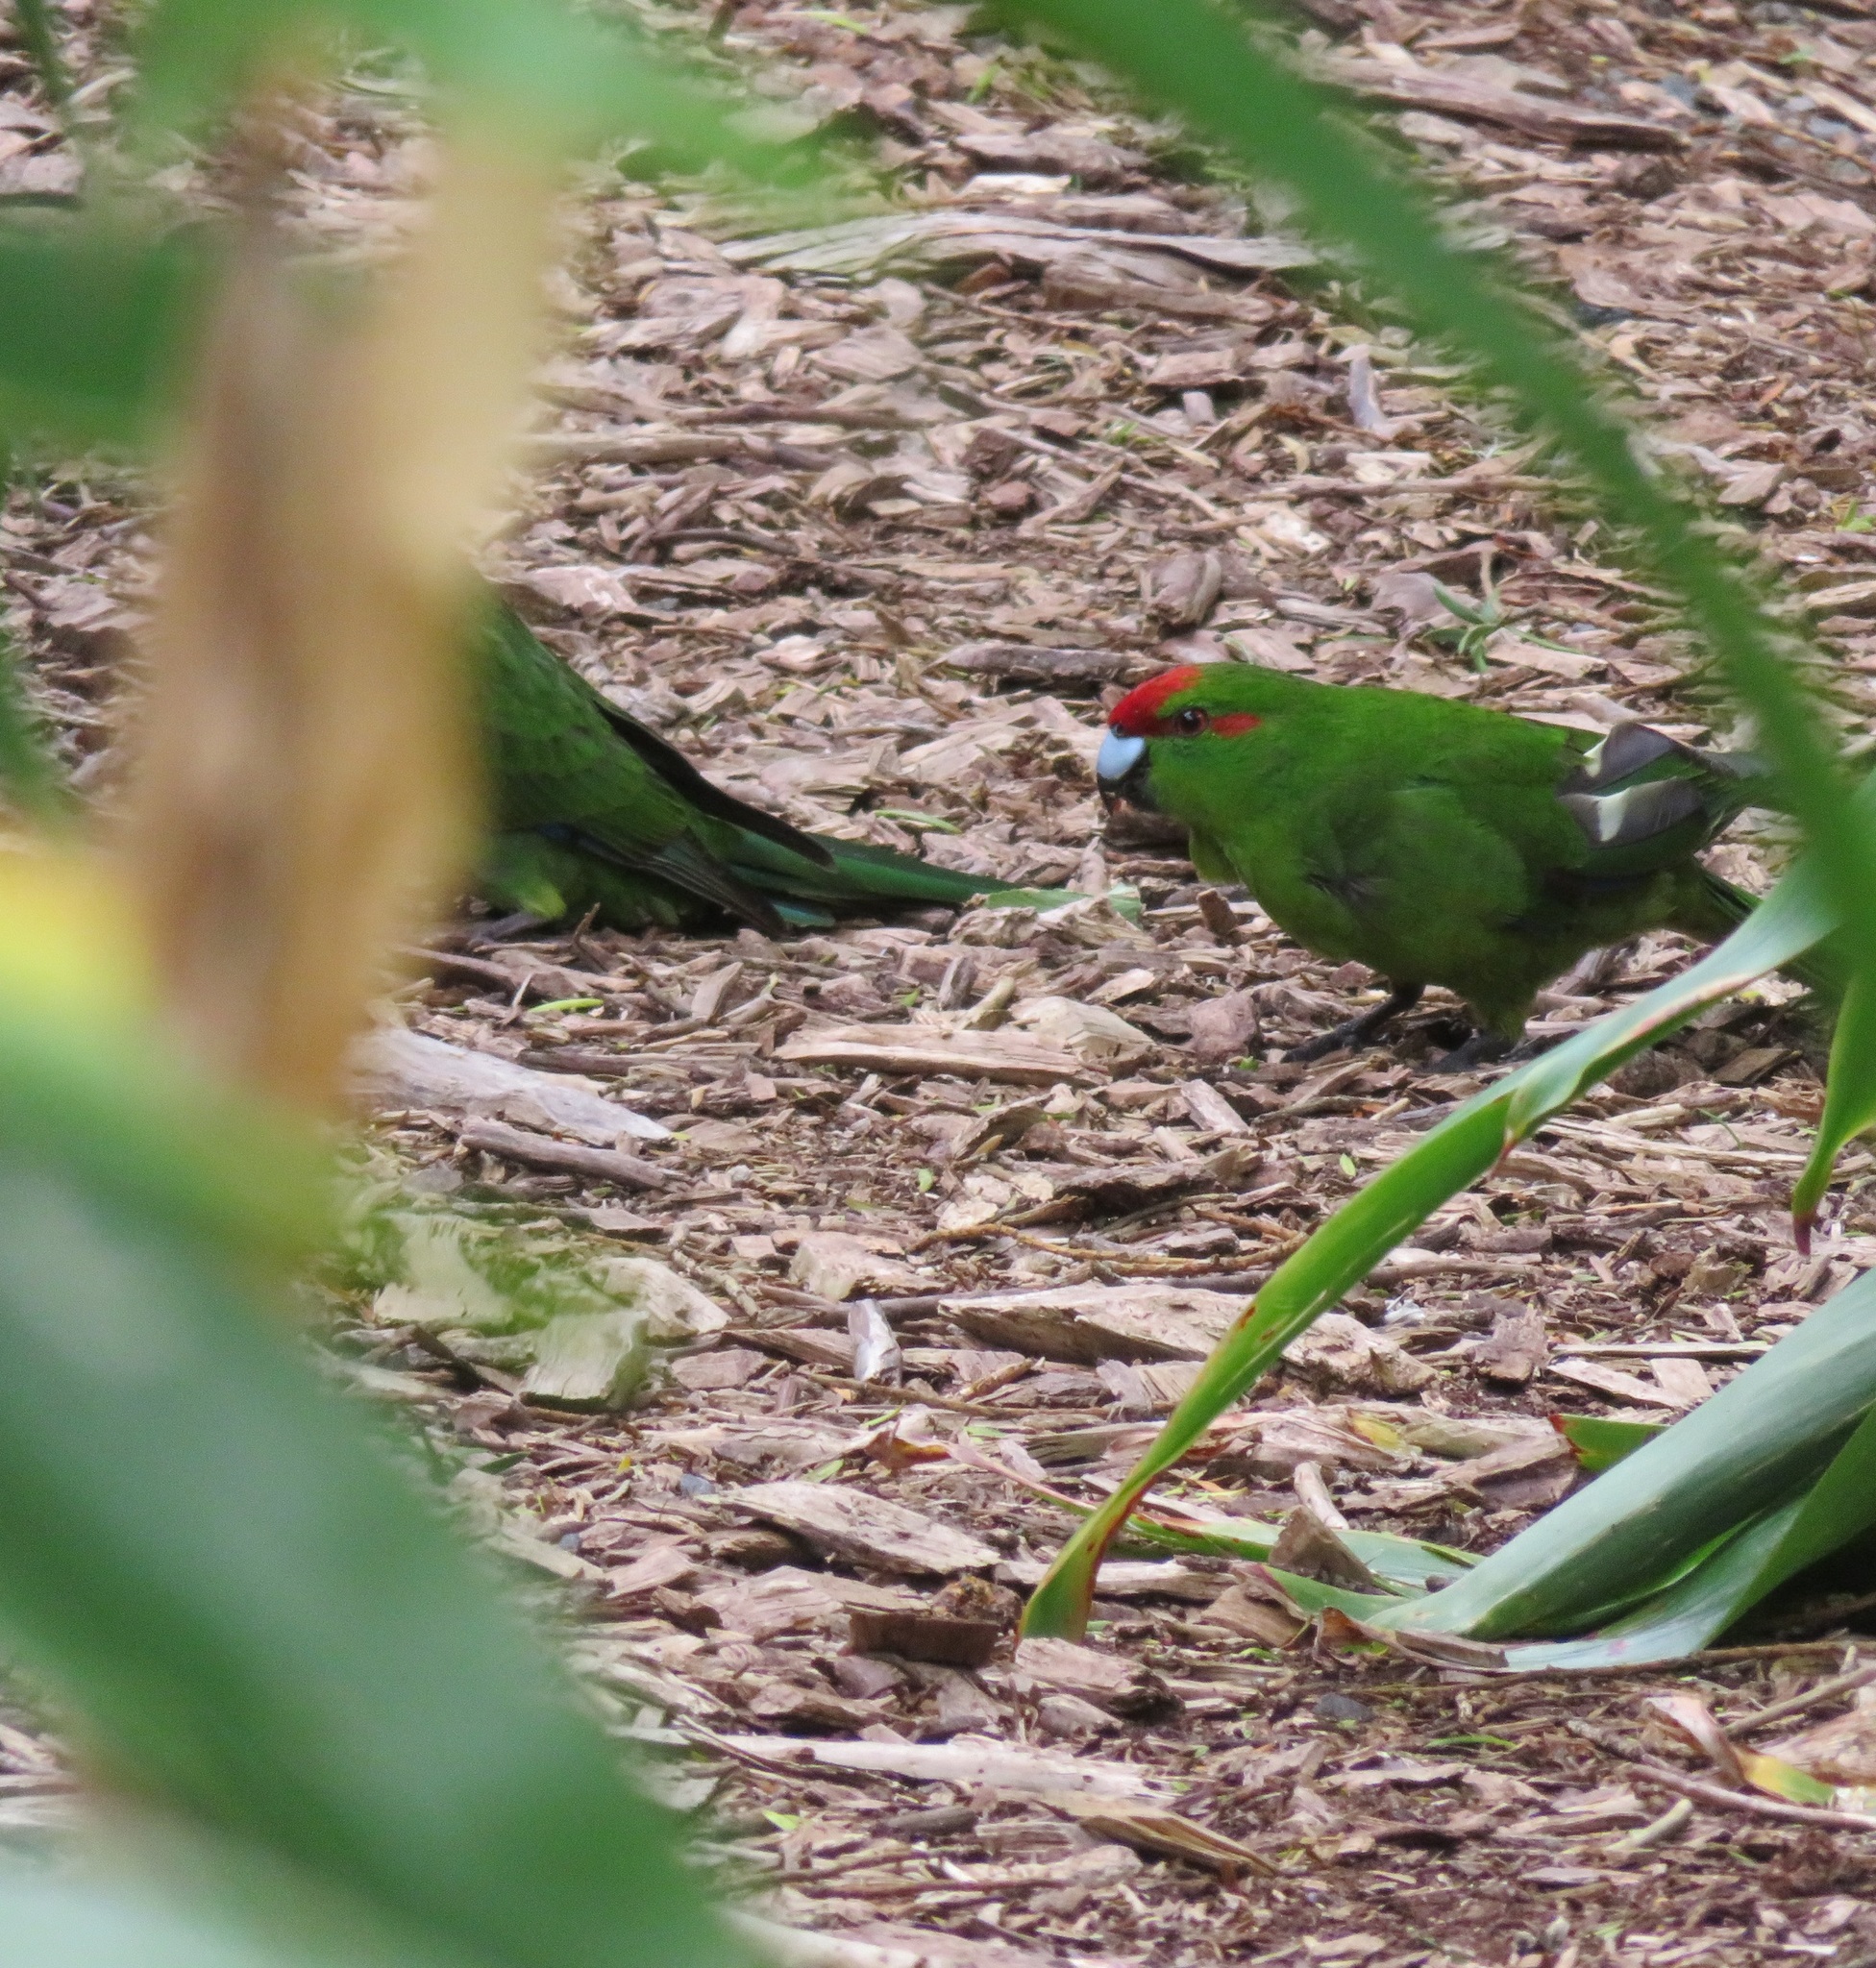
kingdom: Animalia
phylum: Chordata
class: Aves
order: Psittaciformes
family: Psittacidae
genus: Cyanoramphus
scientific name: Cyanoramphus novaezelandiae
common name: Red-fronted parakeet
